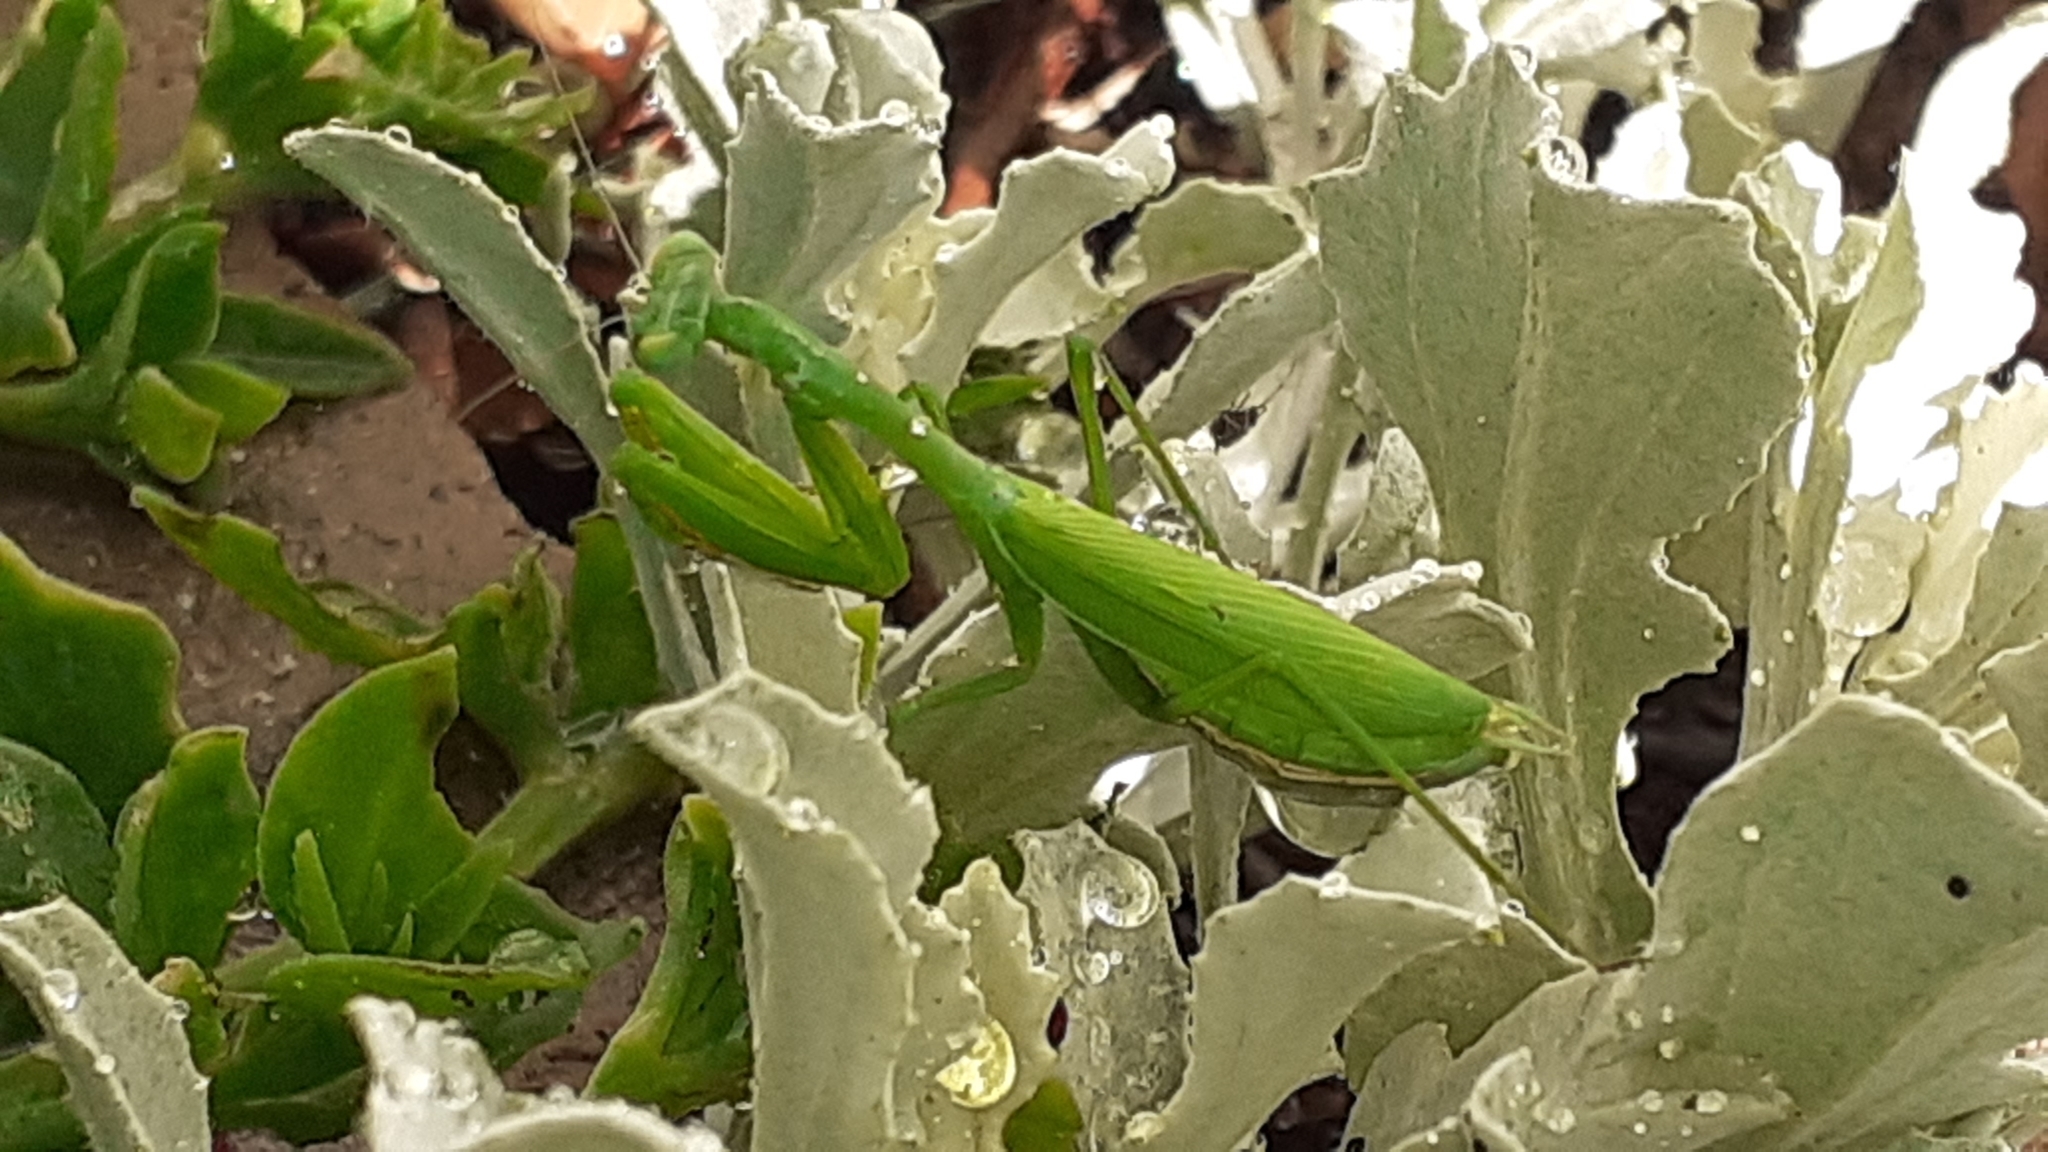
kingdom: Animalia
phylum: Arthropoda
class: Insecta
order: Mantodea
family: Miomantidae
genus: Miomantis
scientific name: Miomantis caffra
